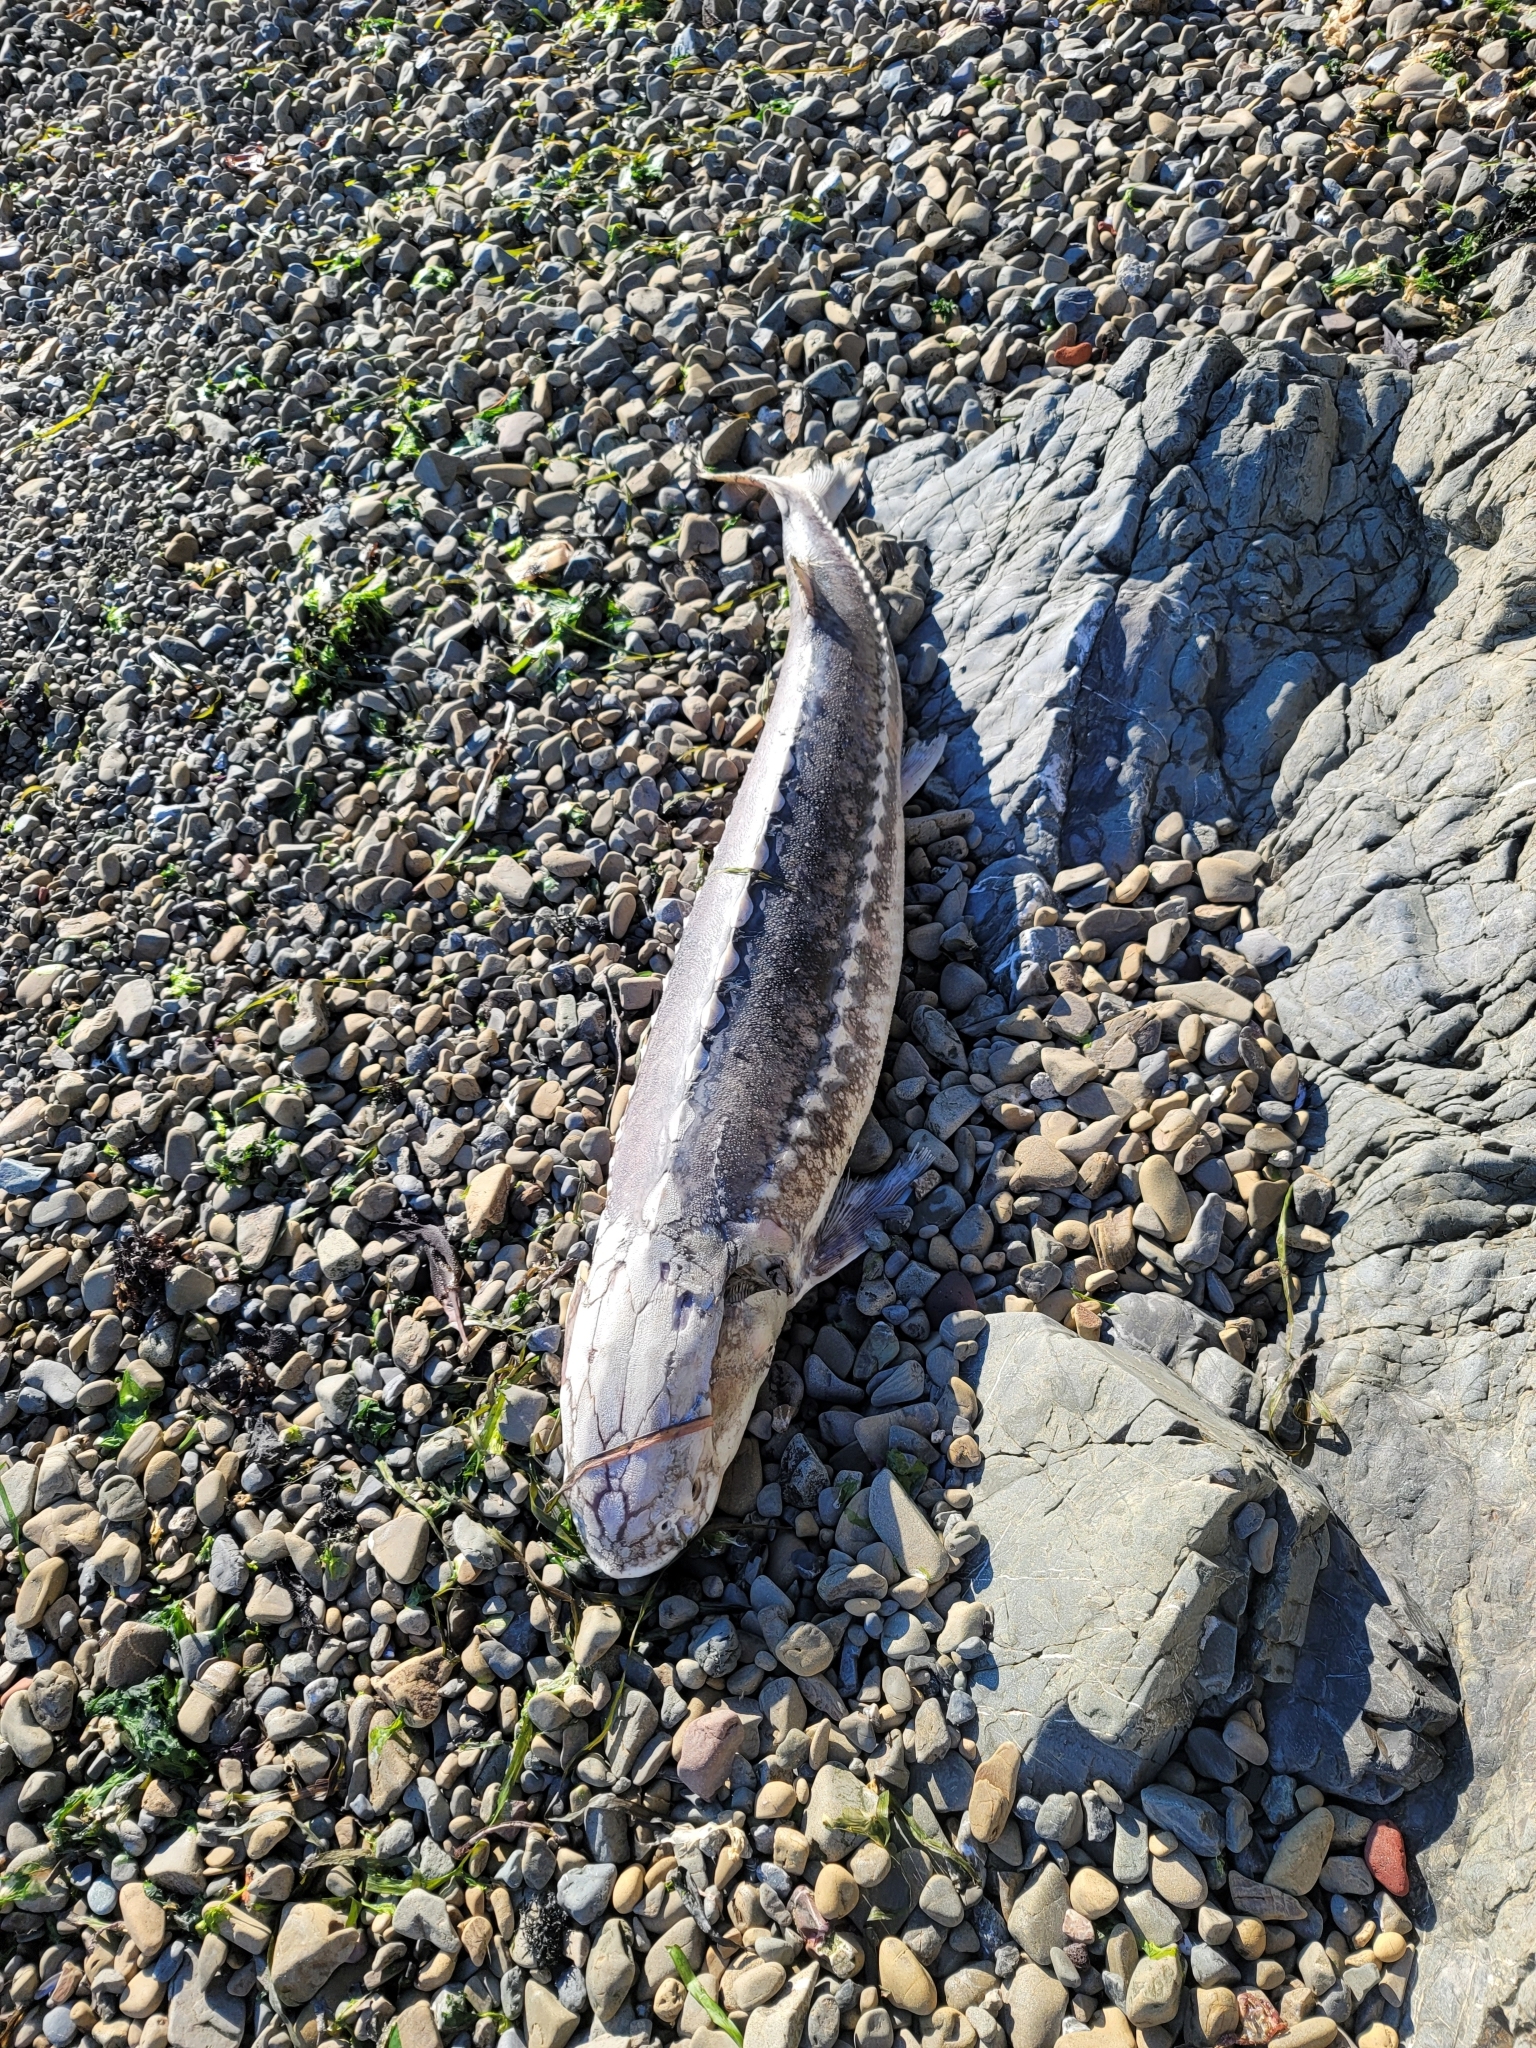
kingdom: Animalia
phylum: Chordata
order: Acipenseriformes
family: Acipenseridae
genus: Acipenser
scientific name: Acipenser transmontanus
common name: White sturgeon
